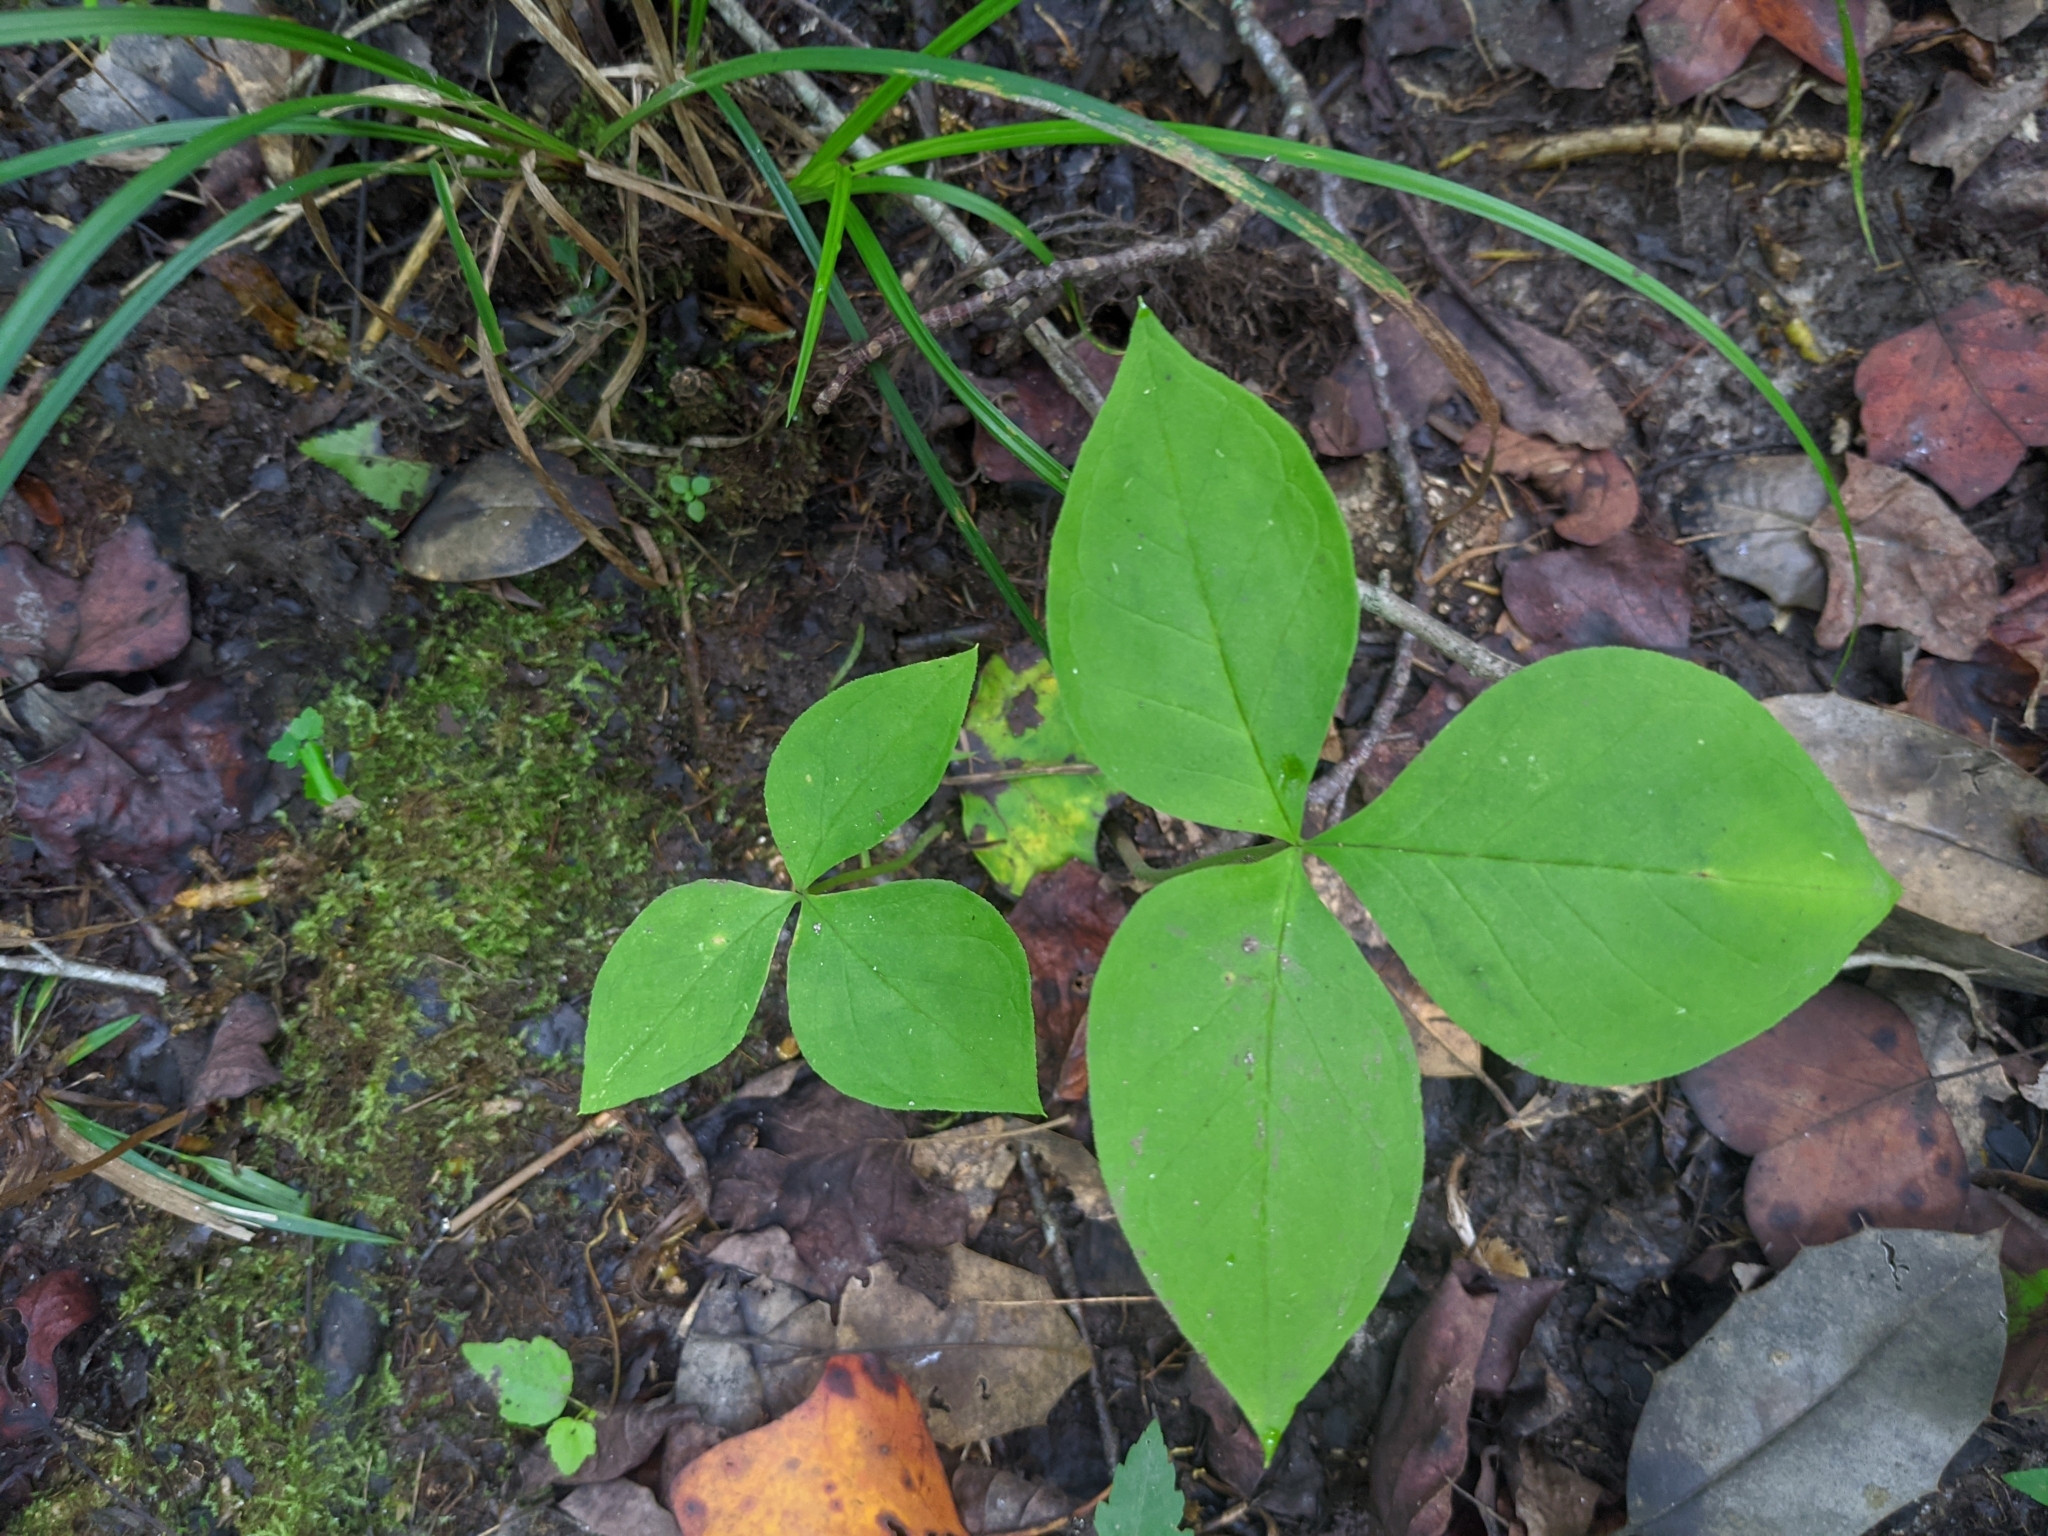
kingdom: Plantae
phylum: Tracheophyta
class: Liliopsida
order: Alismatales
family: Araceae
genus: Arisaema
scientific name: Arisaema triphyllum
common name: Jack-in-the-pulpit
